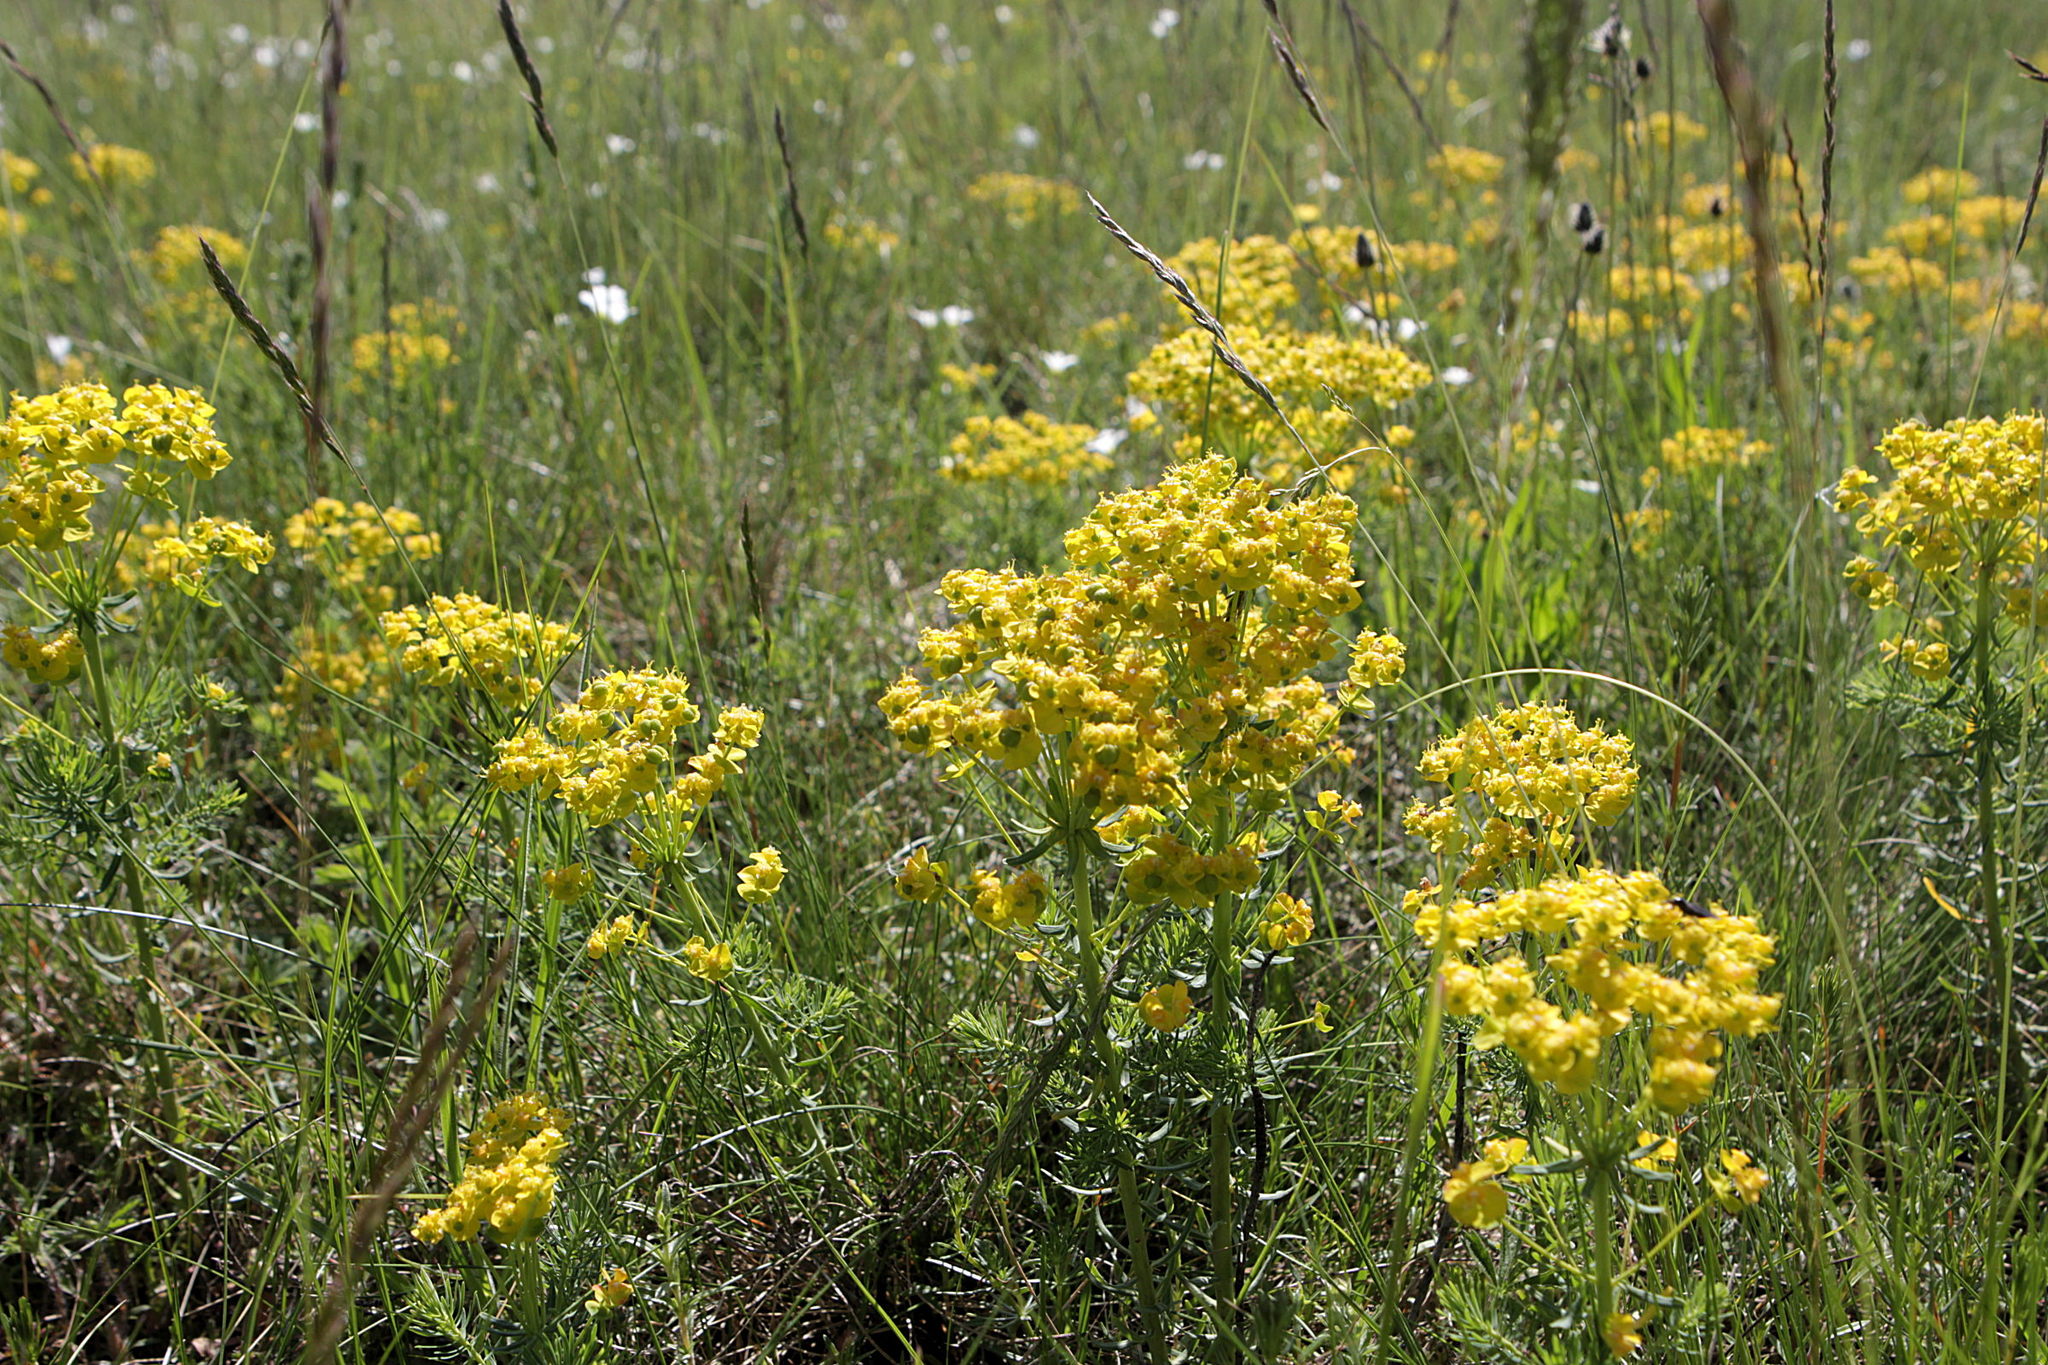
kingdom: Plantae
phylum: Tracheophyta
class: Magnoliopsida
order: Malpighiales
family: Euphorbiaceae
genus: Euphorbia
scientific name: Euphorbia cyparissias
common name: Cypress spurge
